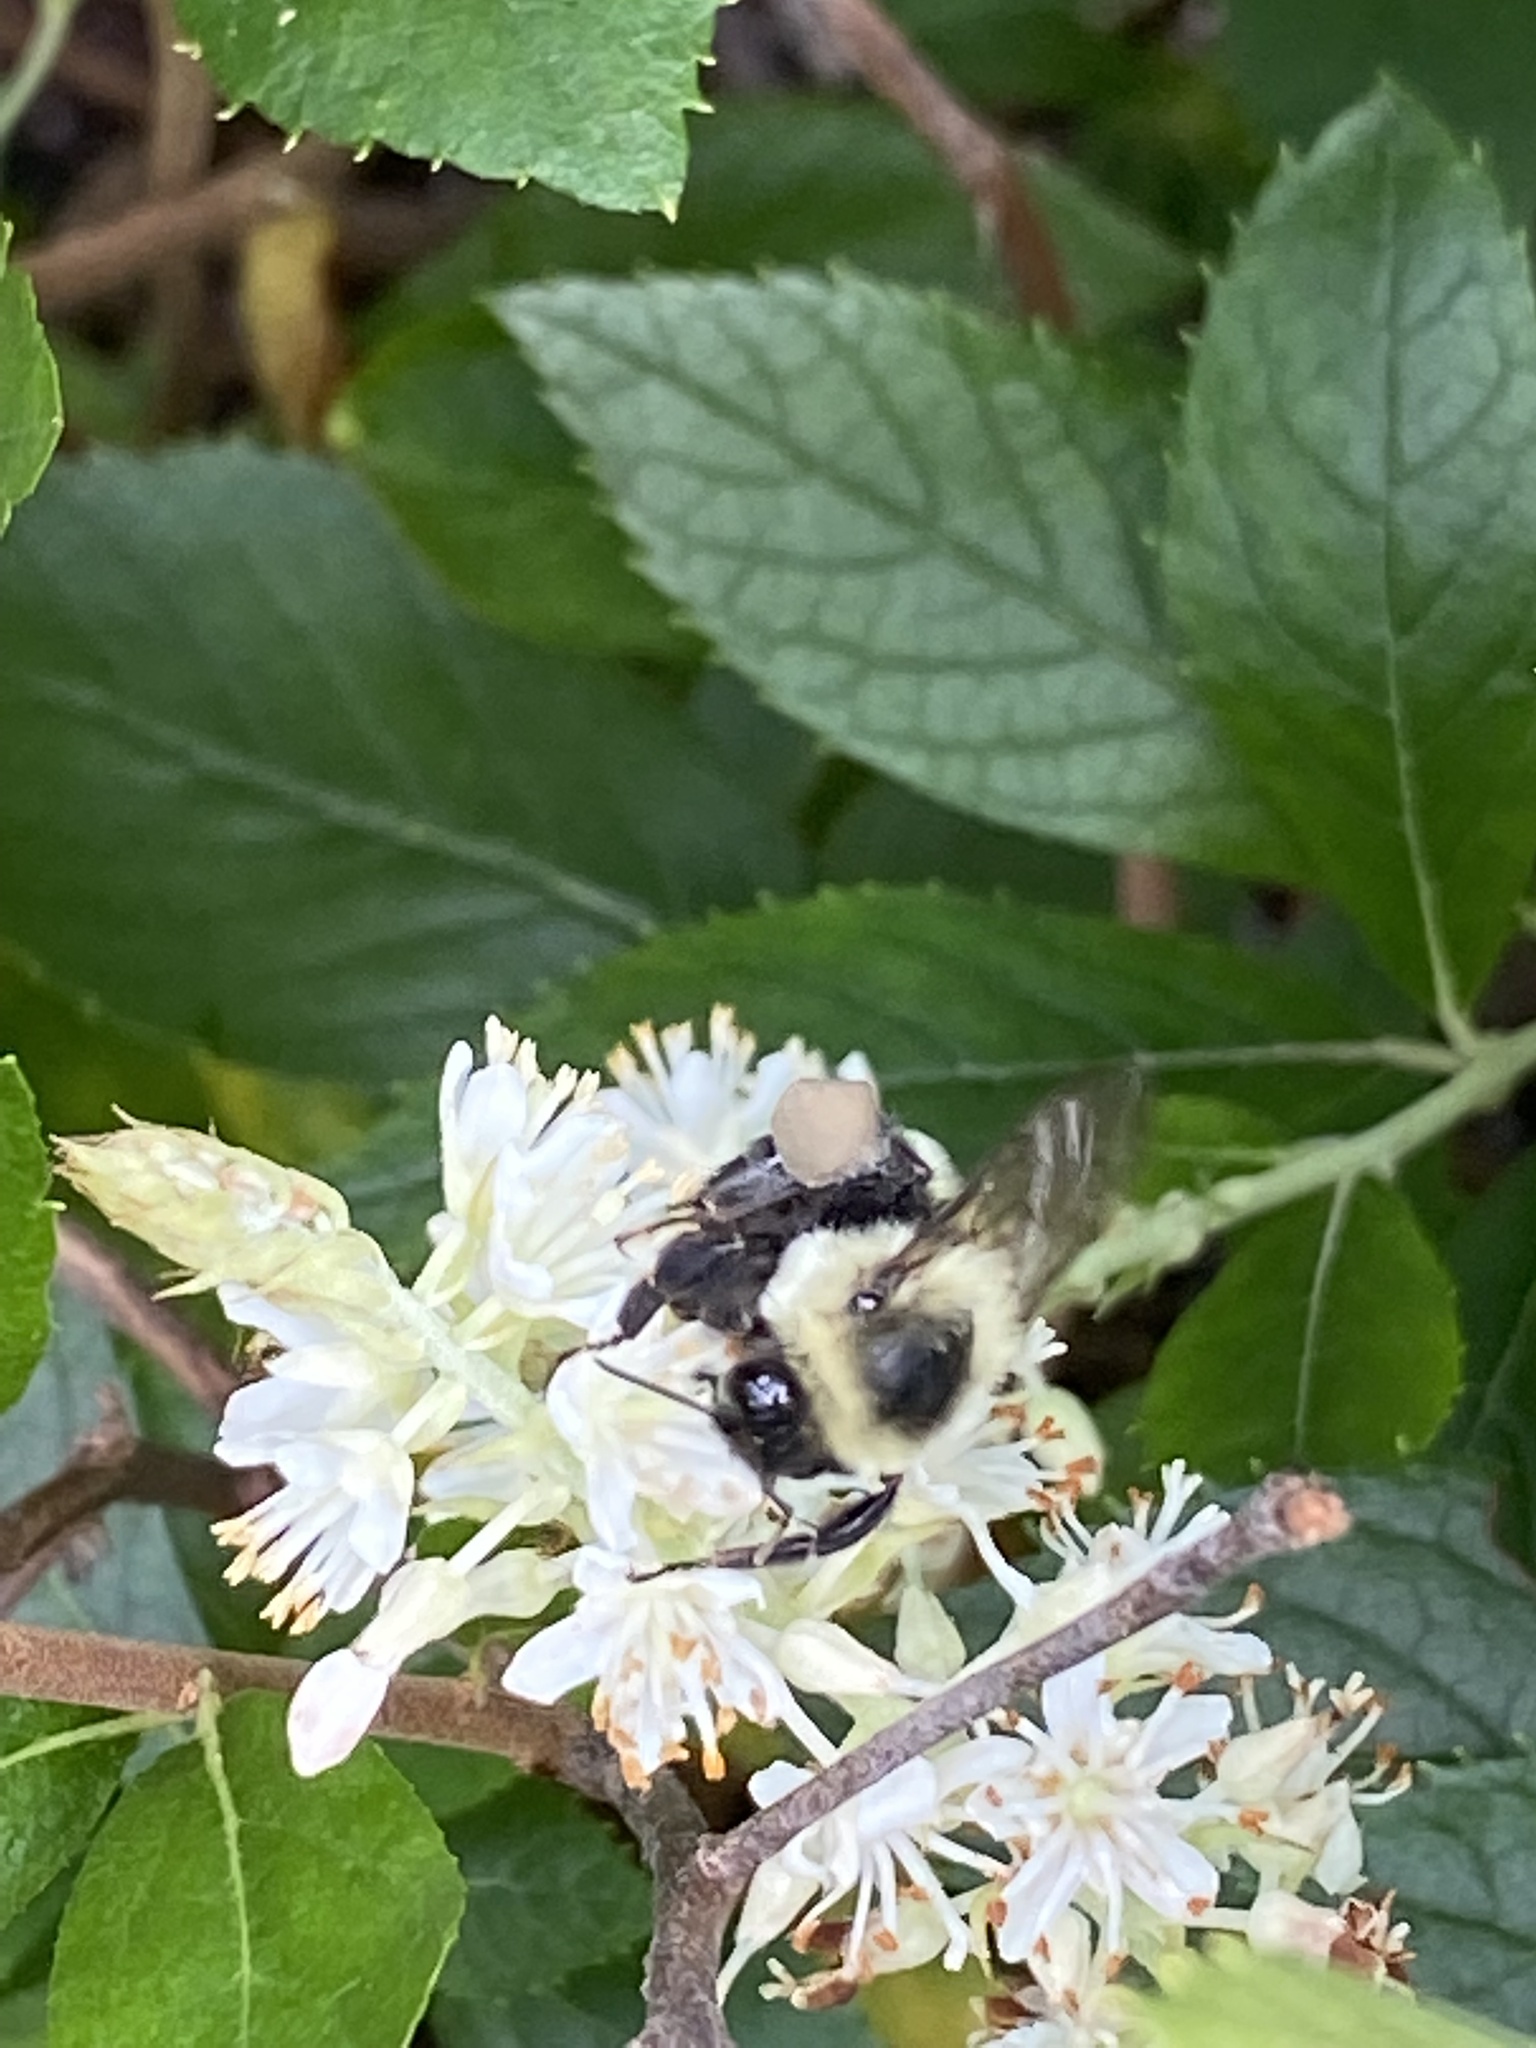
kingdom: Animalia
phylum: Arthropoda
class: Insecta
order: Hymenoptera
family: Apidae
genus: Bombus
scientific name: Bombus impatiens
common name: Common eastern bumble bee
